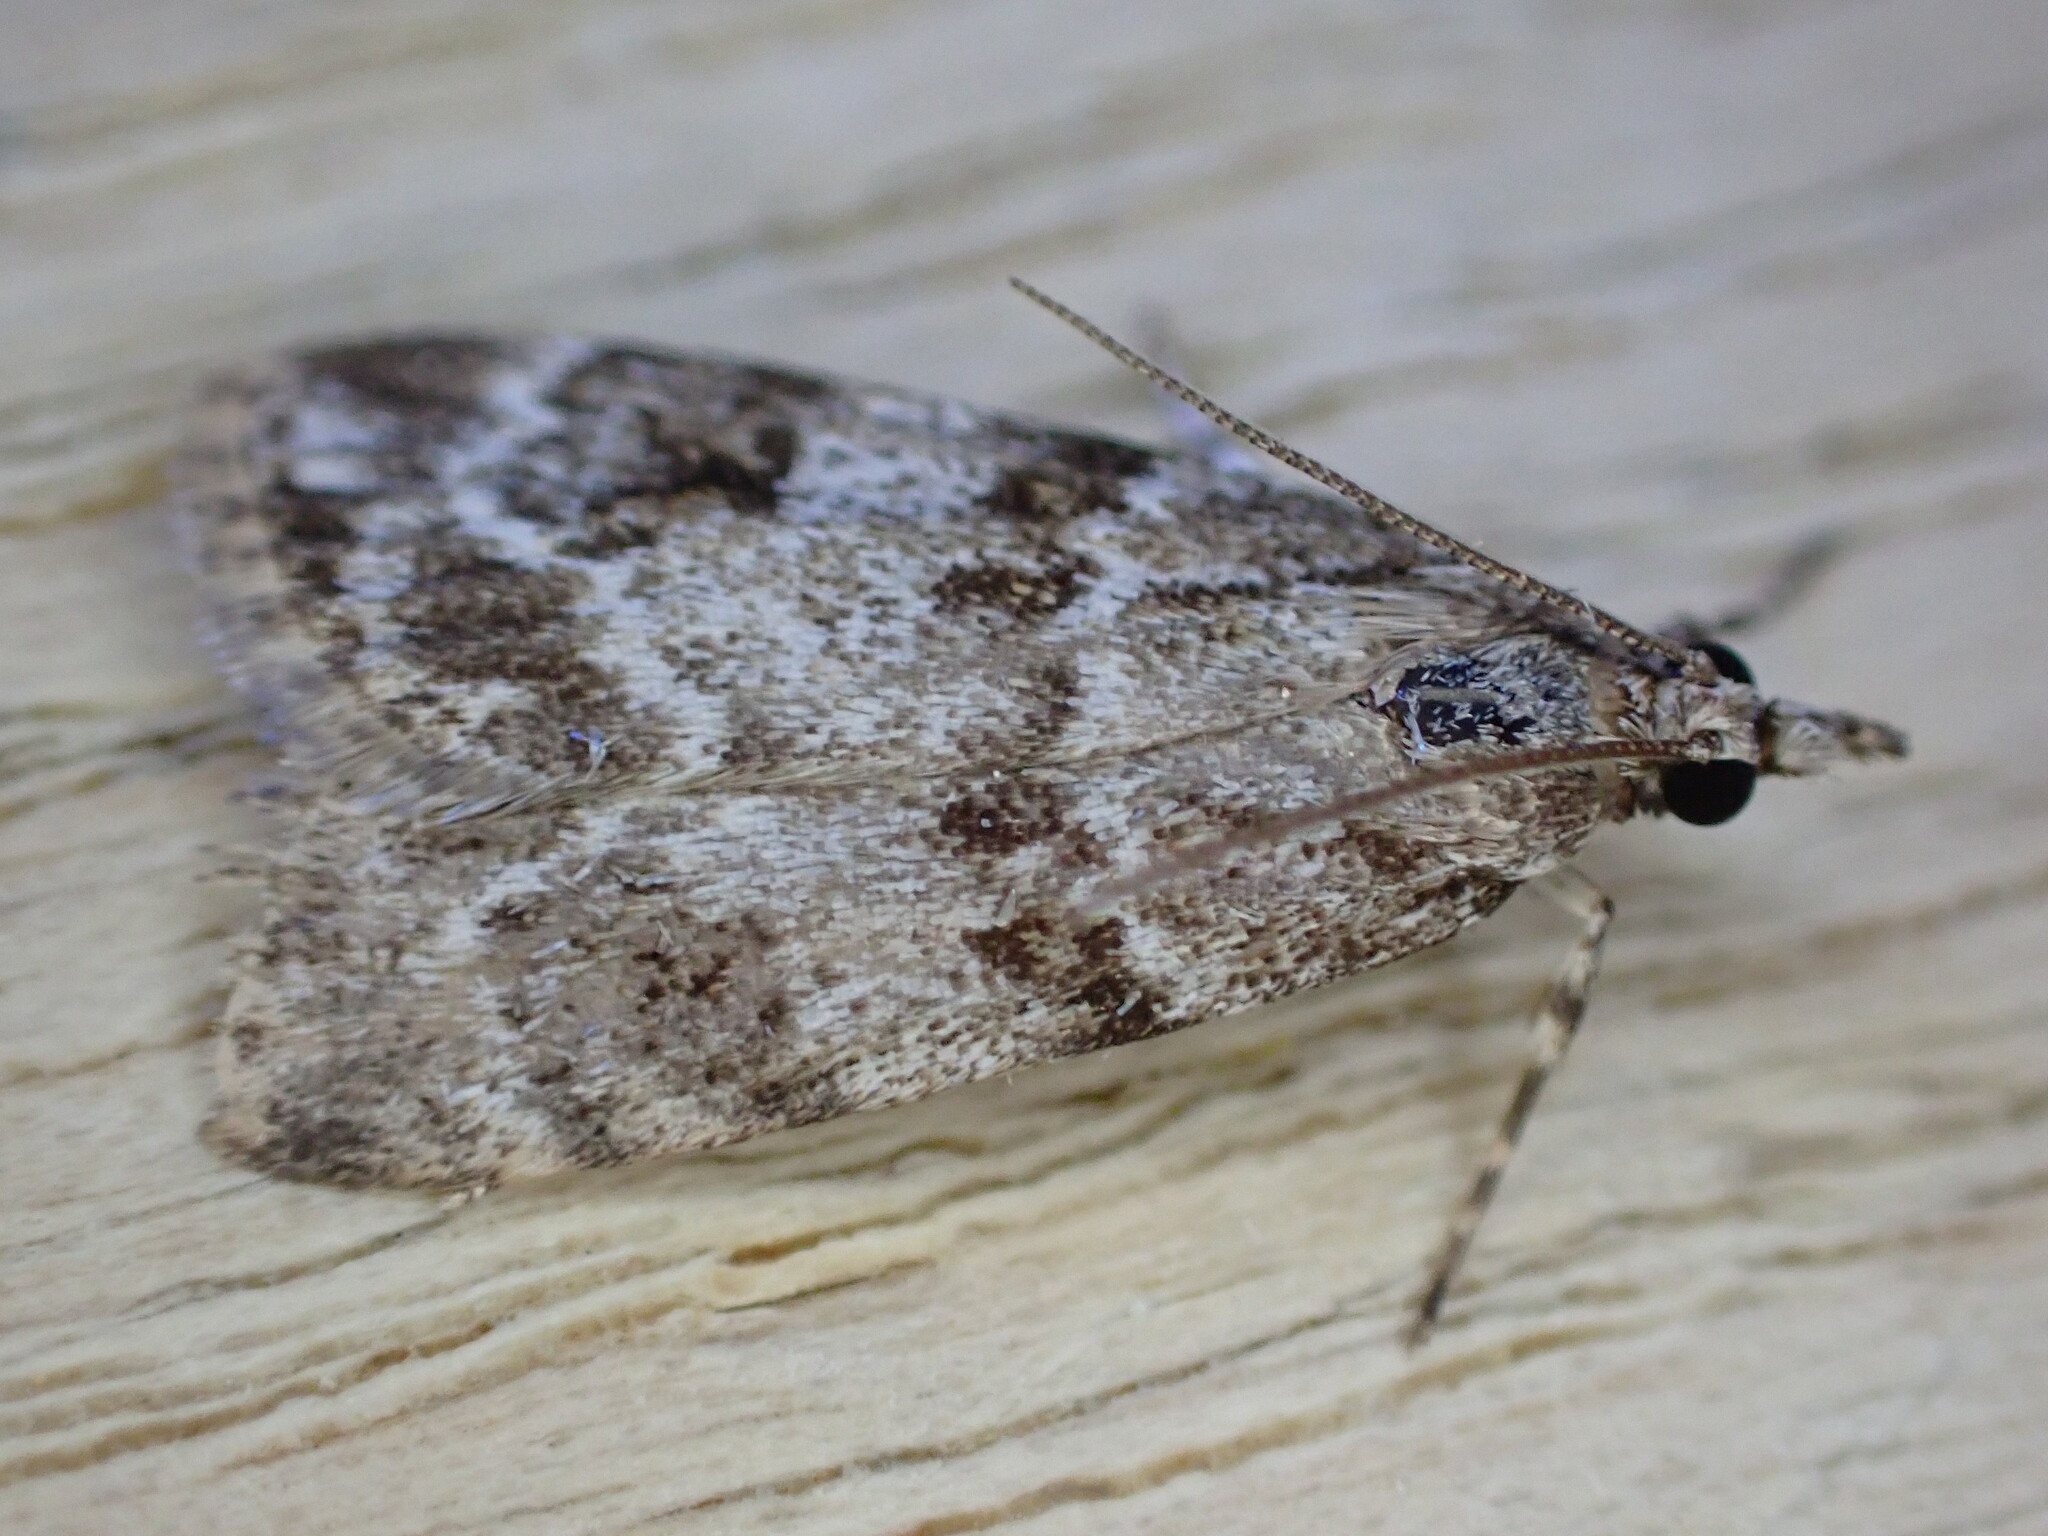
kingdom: Animalia
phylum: Arthropoda
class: Insecta
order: Lepidoptera
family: Crambidae
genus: Scoparia
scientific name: Scoparia ambigualis
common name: Common grey
